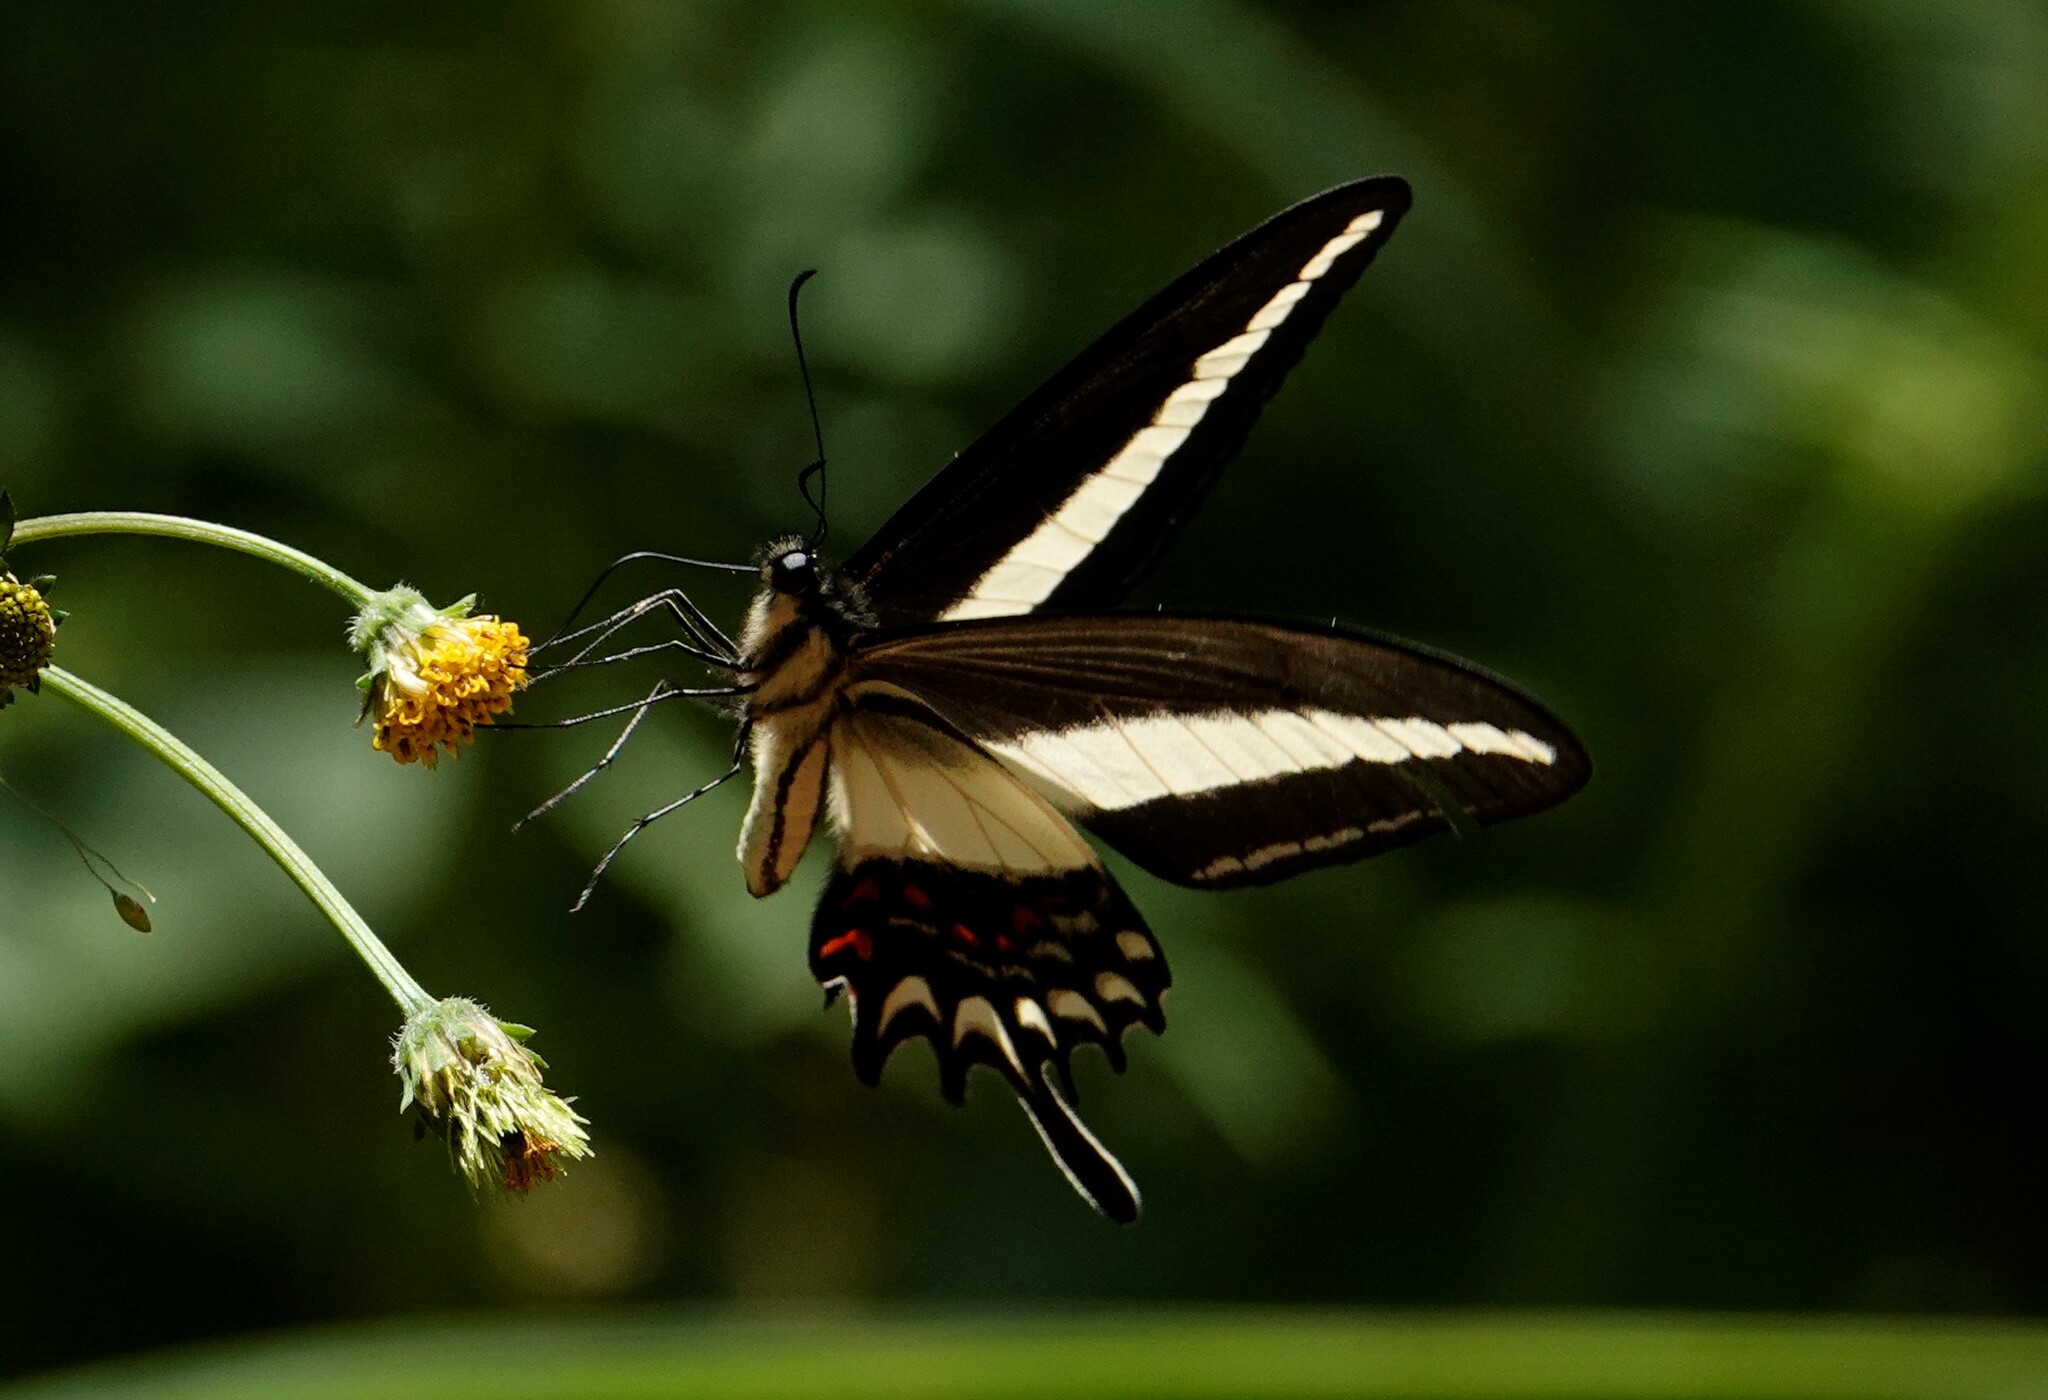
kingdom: Animalia
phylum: Arthropoda
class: Insecta
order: Lepidoptera
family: Papilionidae
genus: Heraclides
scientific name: Heraclides hectorides
